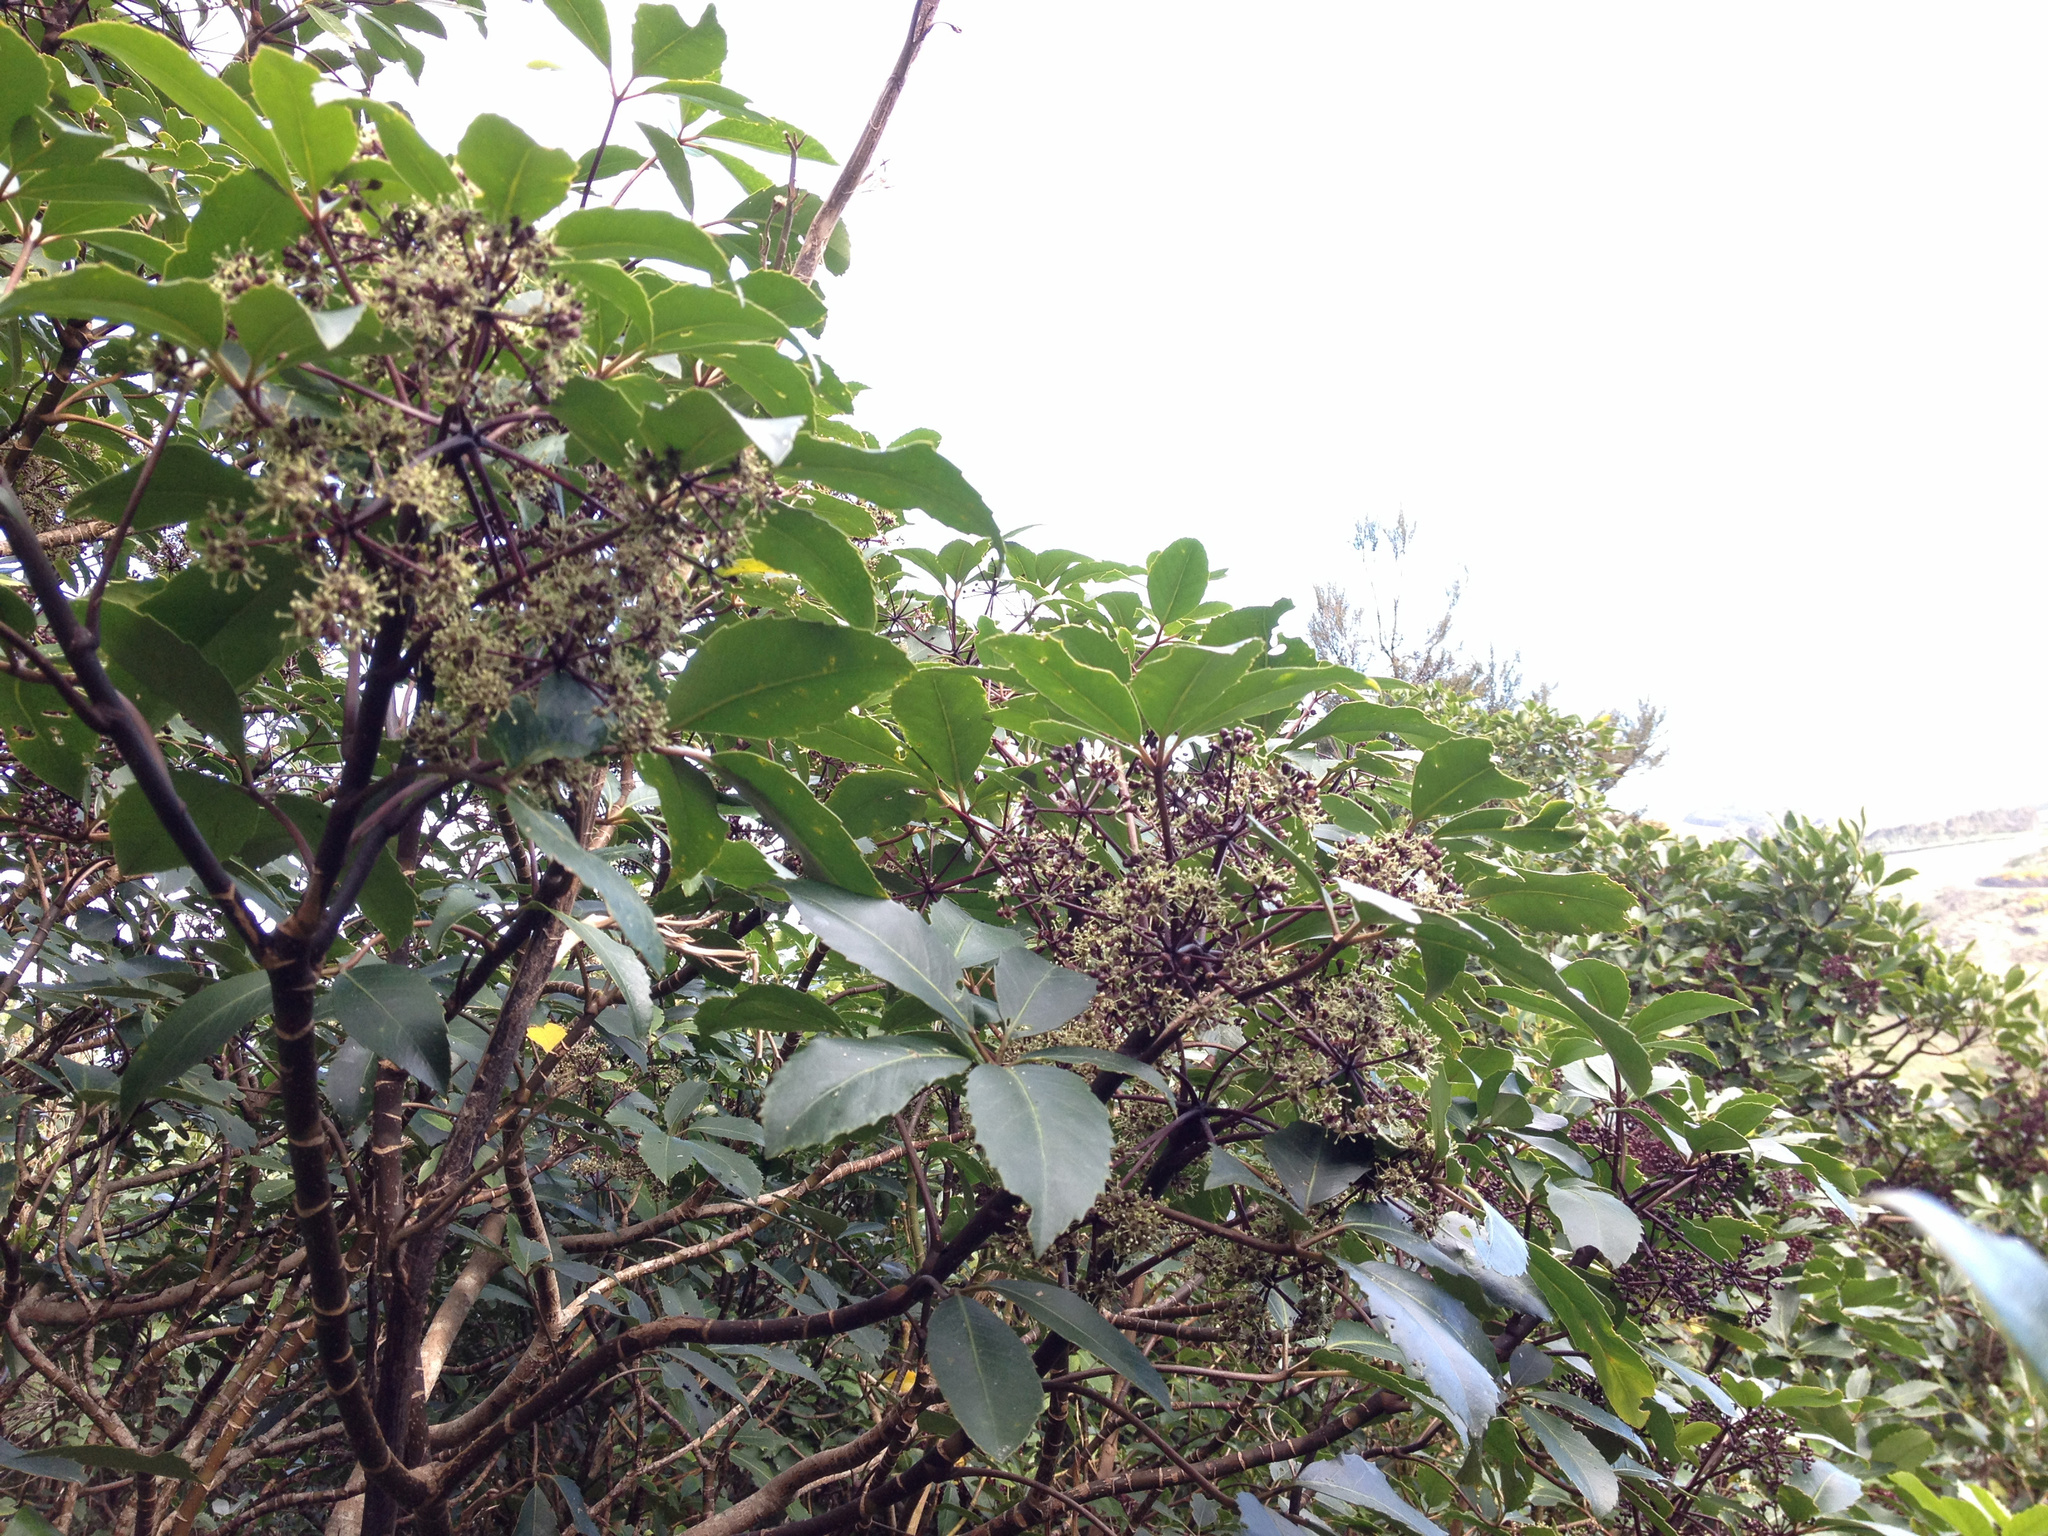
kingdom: Plantae
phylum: Tracheophyta
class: Magnoliopsida
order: Apiales
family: Araliaceae
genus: Neopanax
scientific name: Neopanax arboreus
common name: Five-fingers
